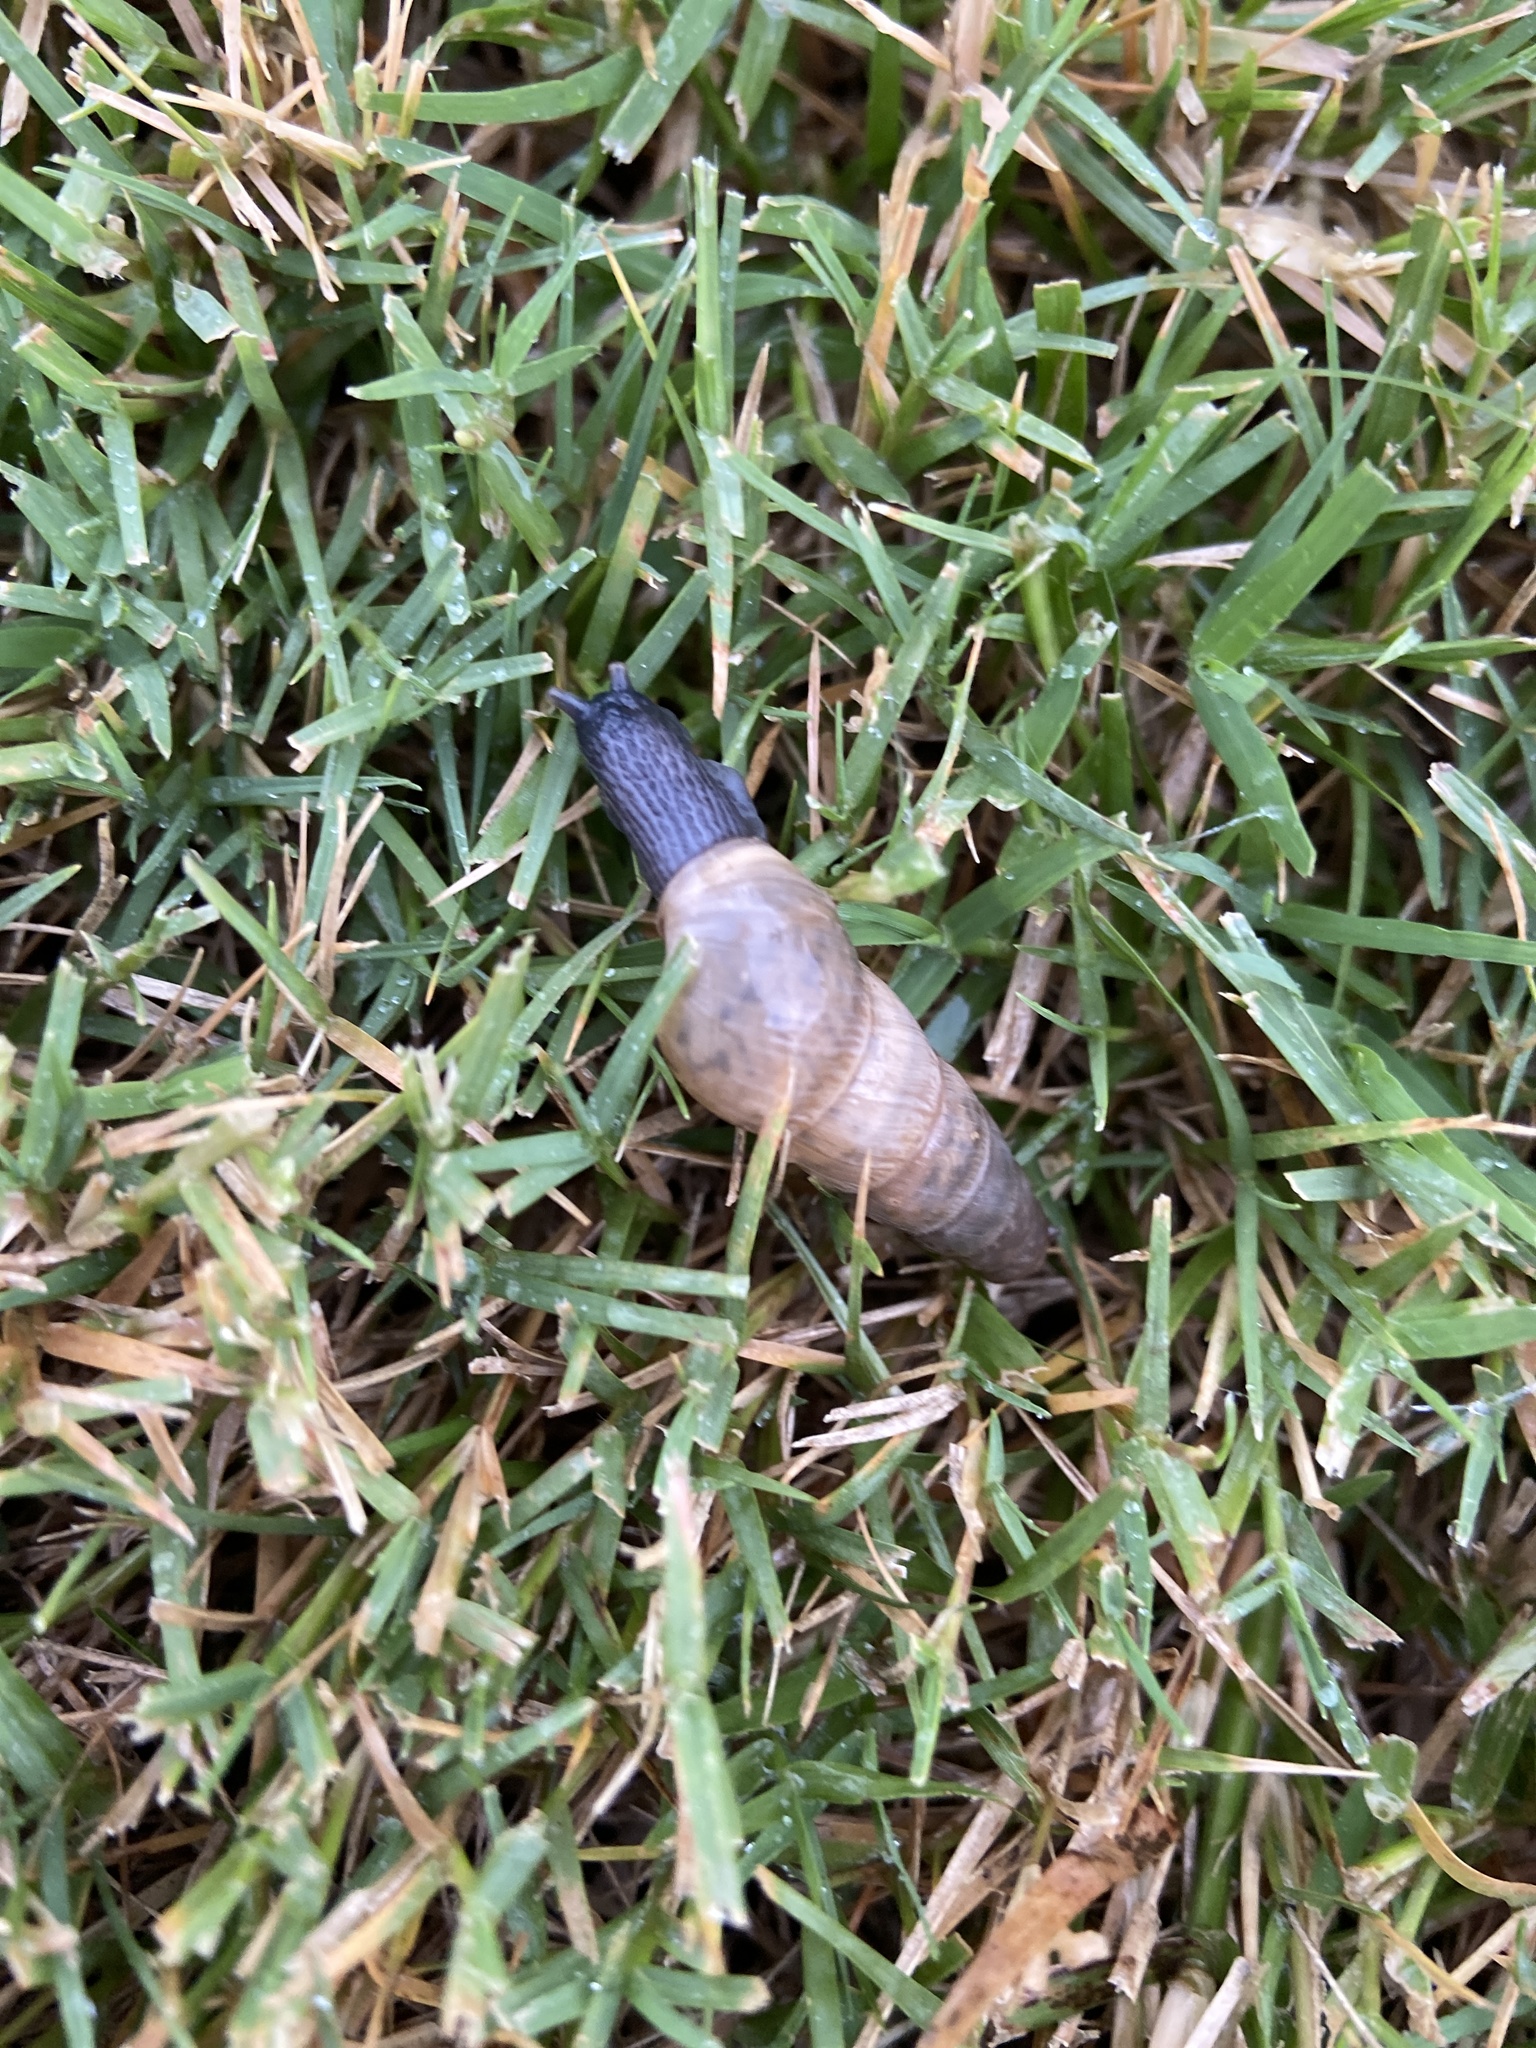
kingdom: Animalia
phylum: Mollusca
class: Gastropoda
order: Stylommatophora
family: Achatinidae
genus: Rumina
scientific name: Rumina decollata
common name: Decollate snail
